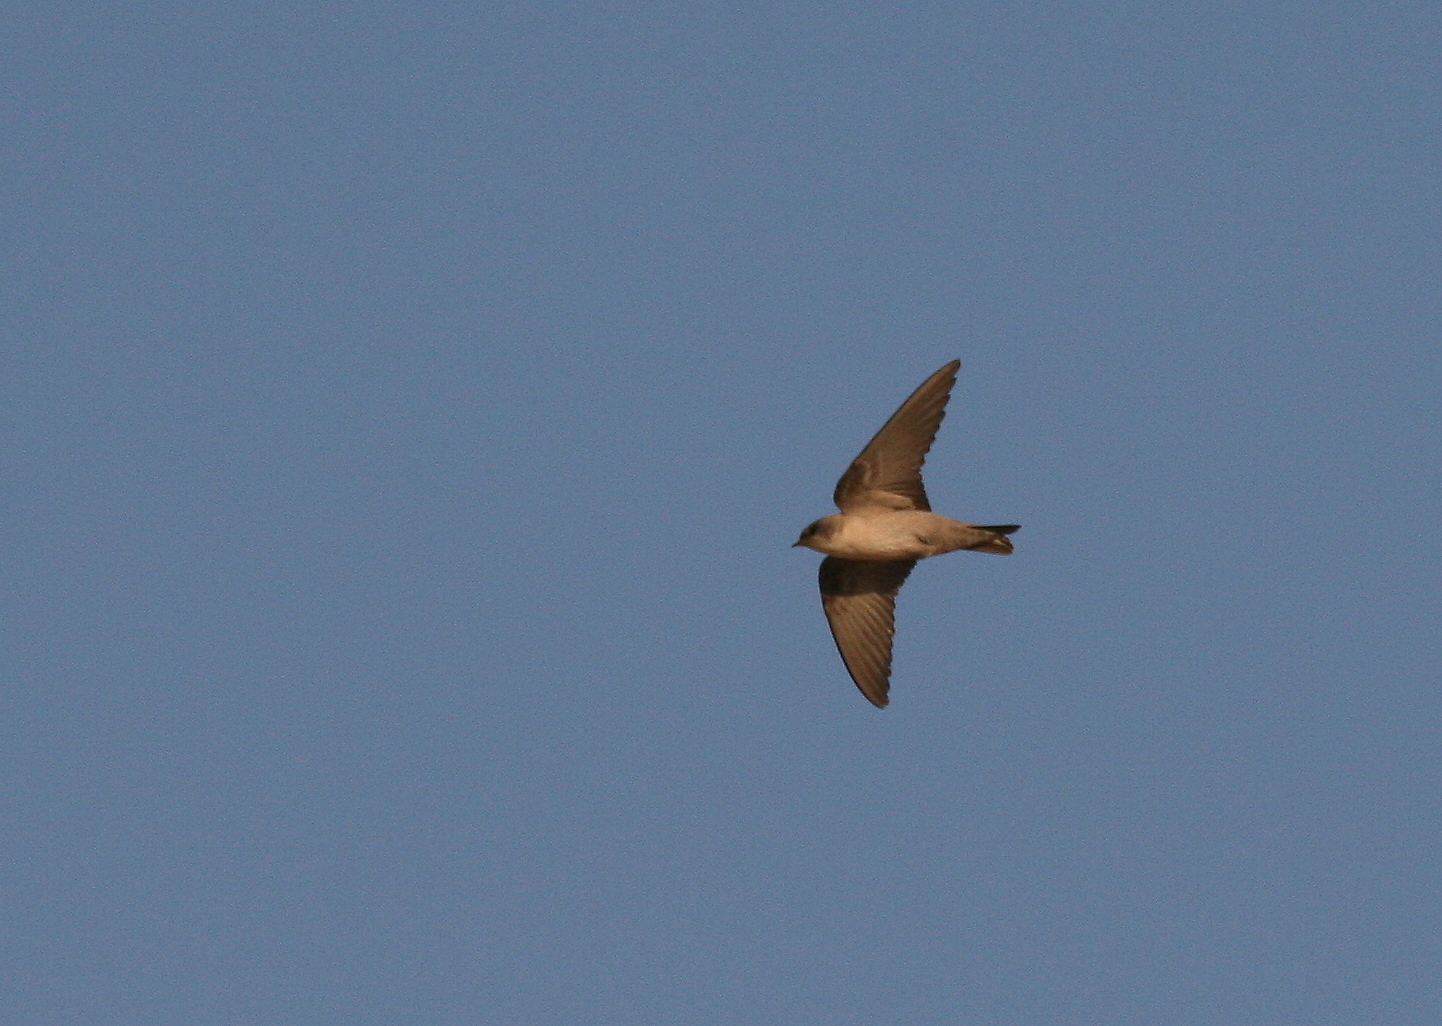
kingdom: Animalia
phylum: Chordata
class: Aves
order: Passeriformes
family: Hirundinidae
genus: Ptyonoprogne
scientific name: Ptyonoprogne fuligula
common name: Rock martin
